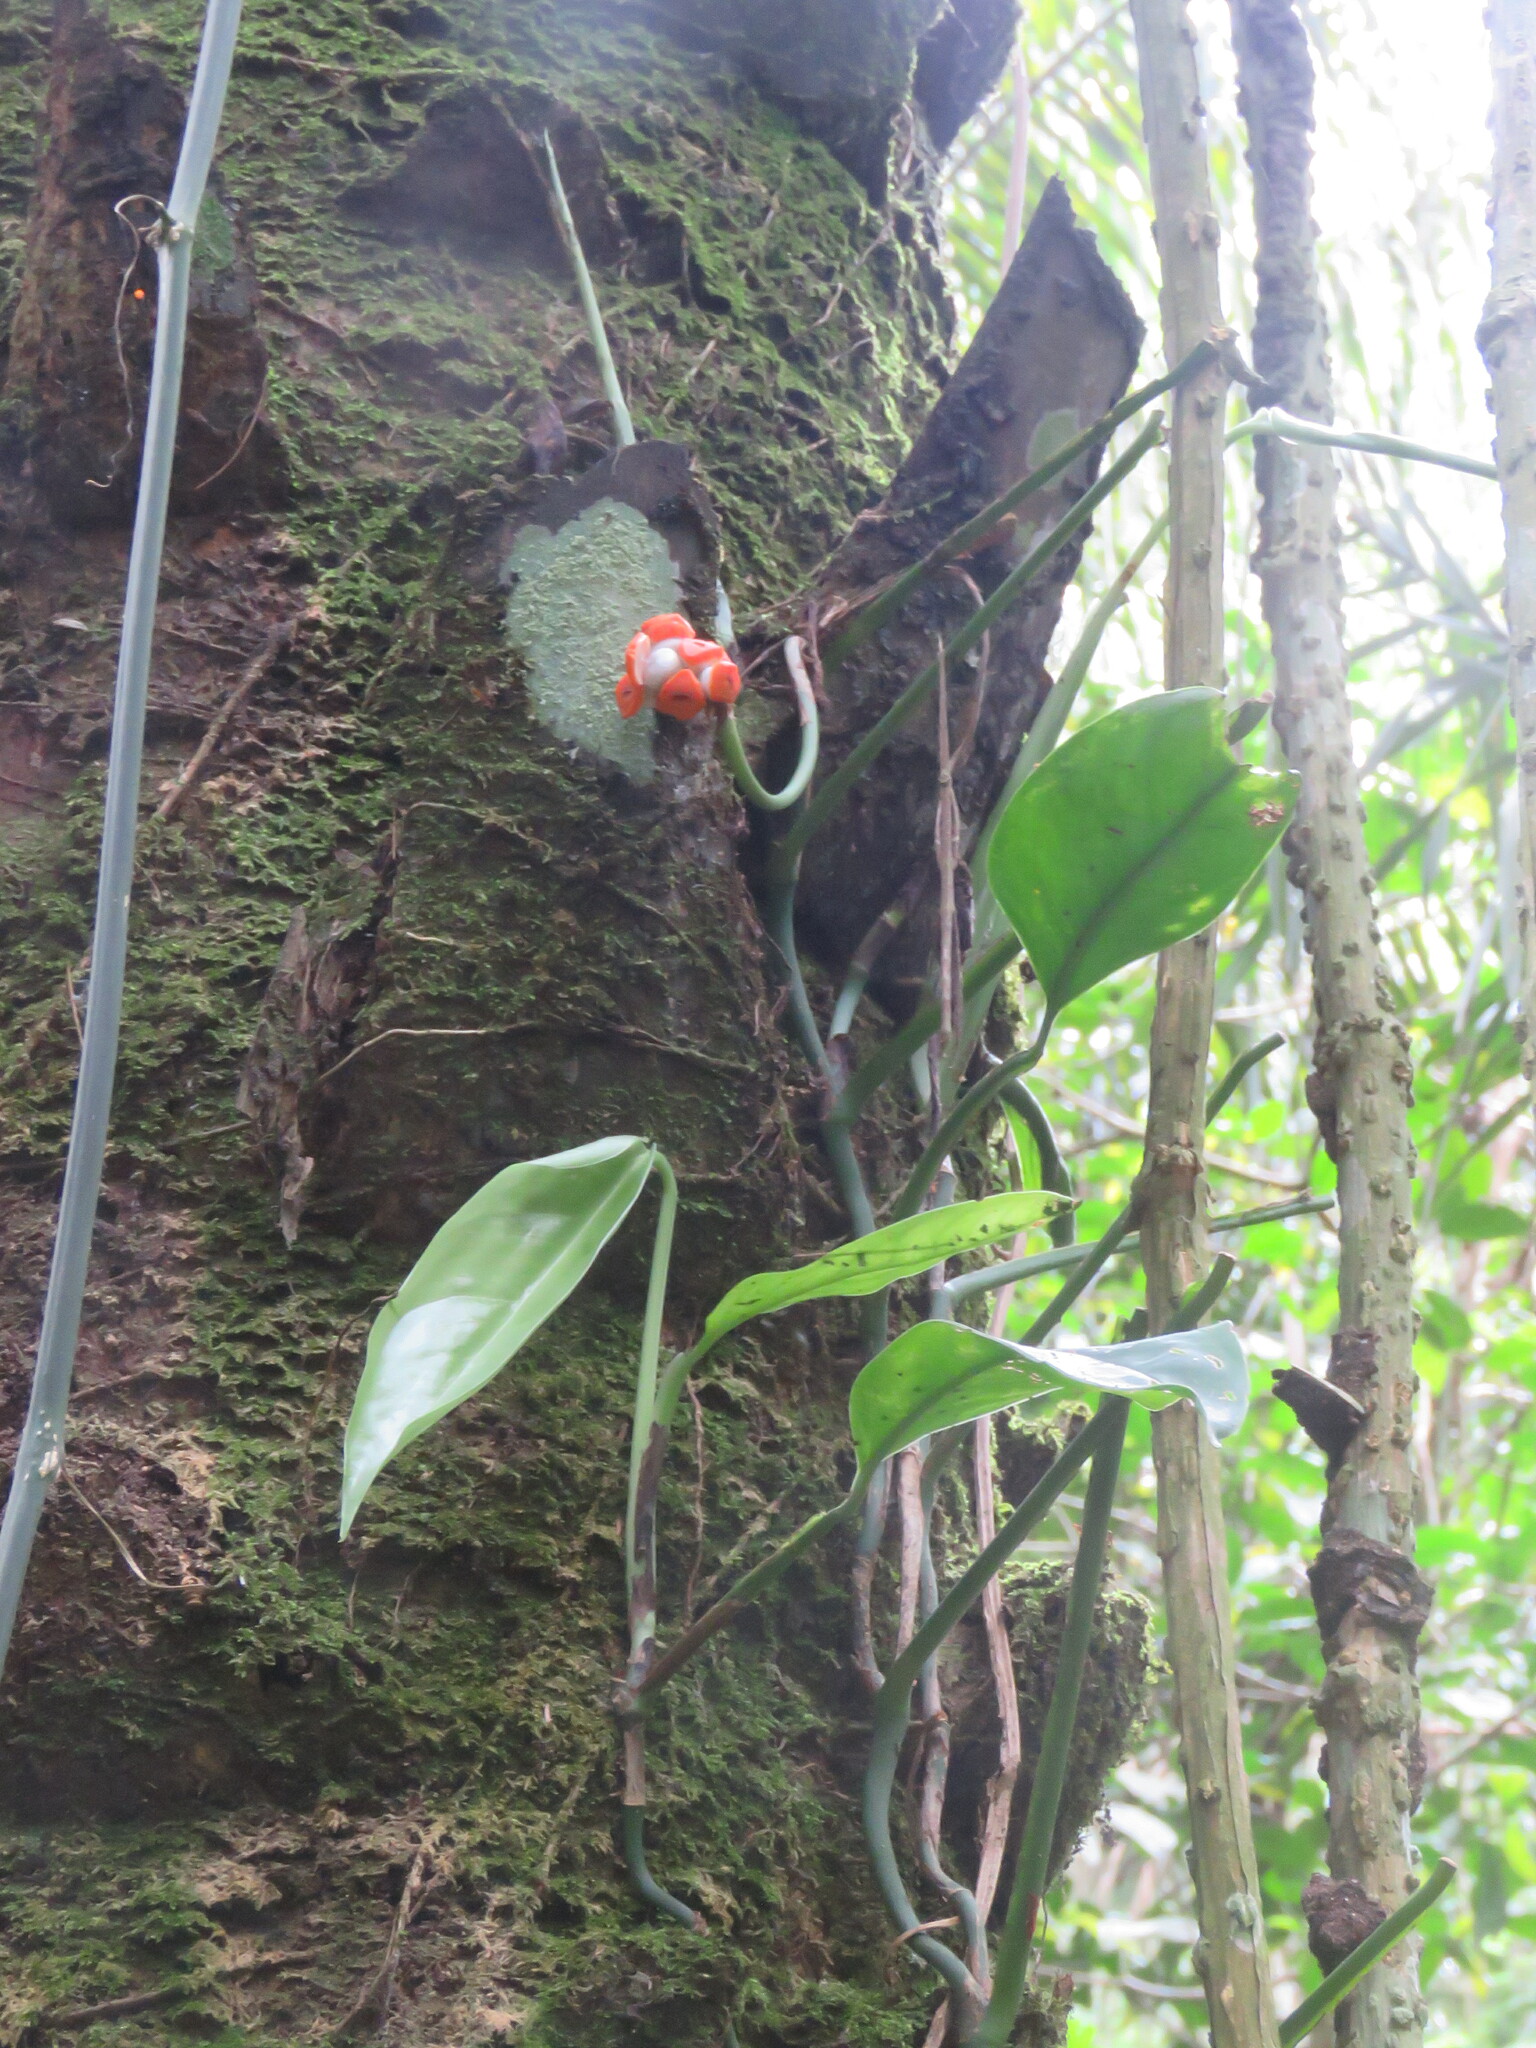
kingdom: Plantae
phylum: Tracheophyta
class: Liliopsida
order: Alismatales
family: Araceae
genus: Monstera
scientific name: Monstera obliqua
